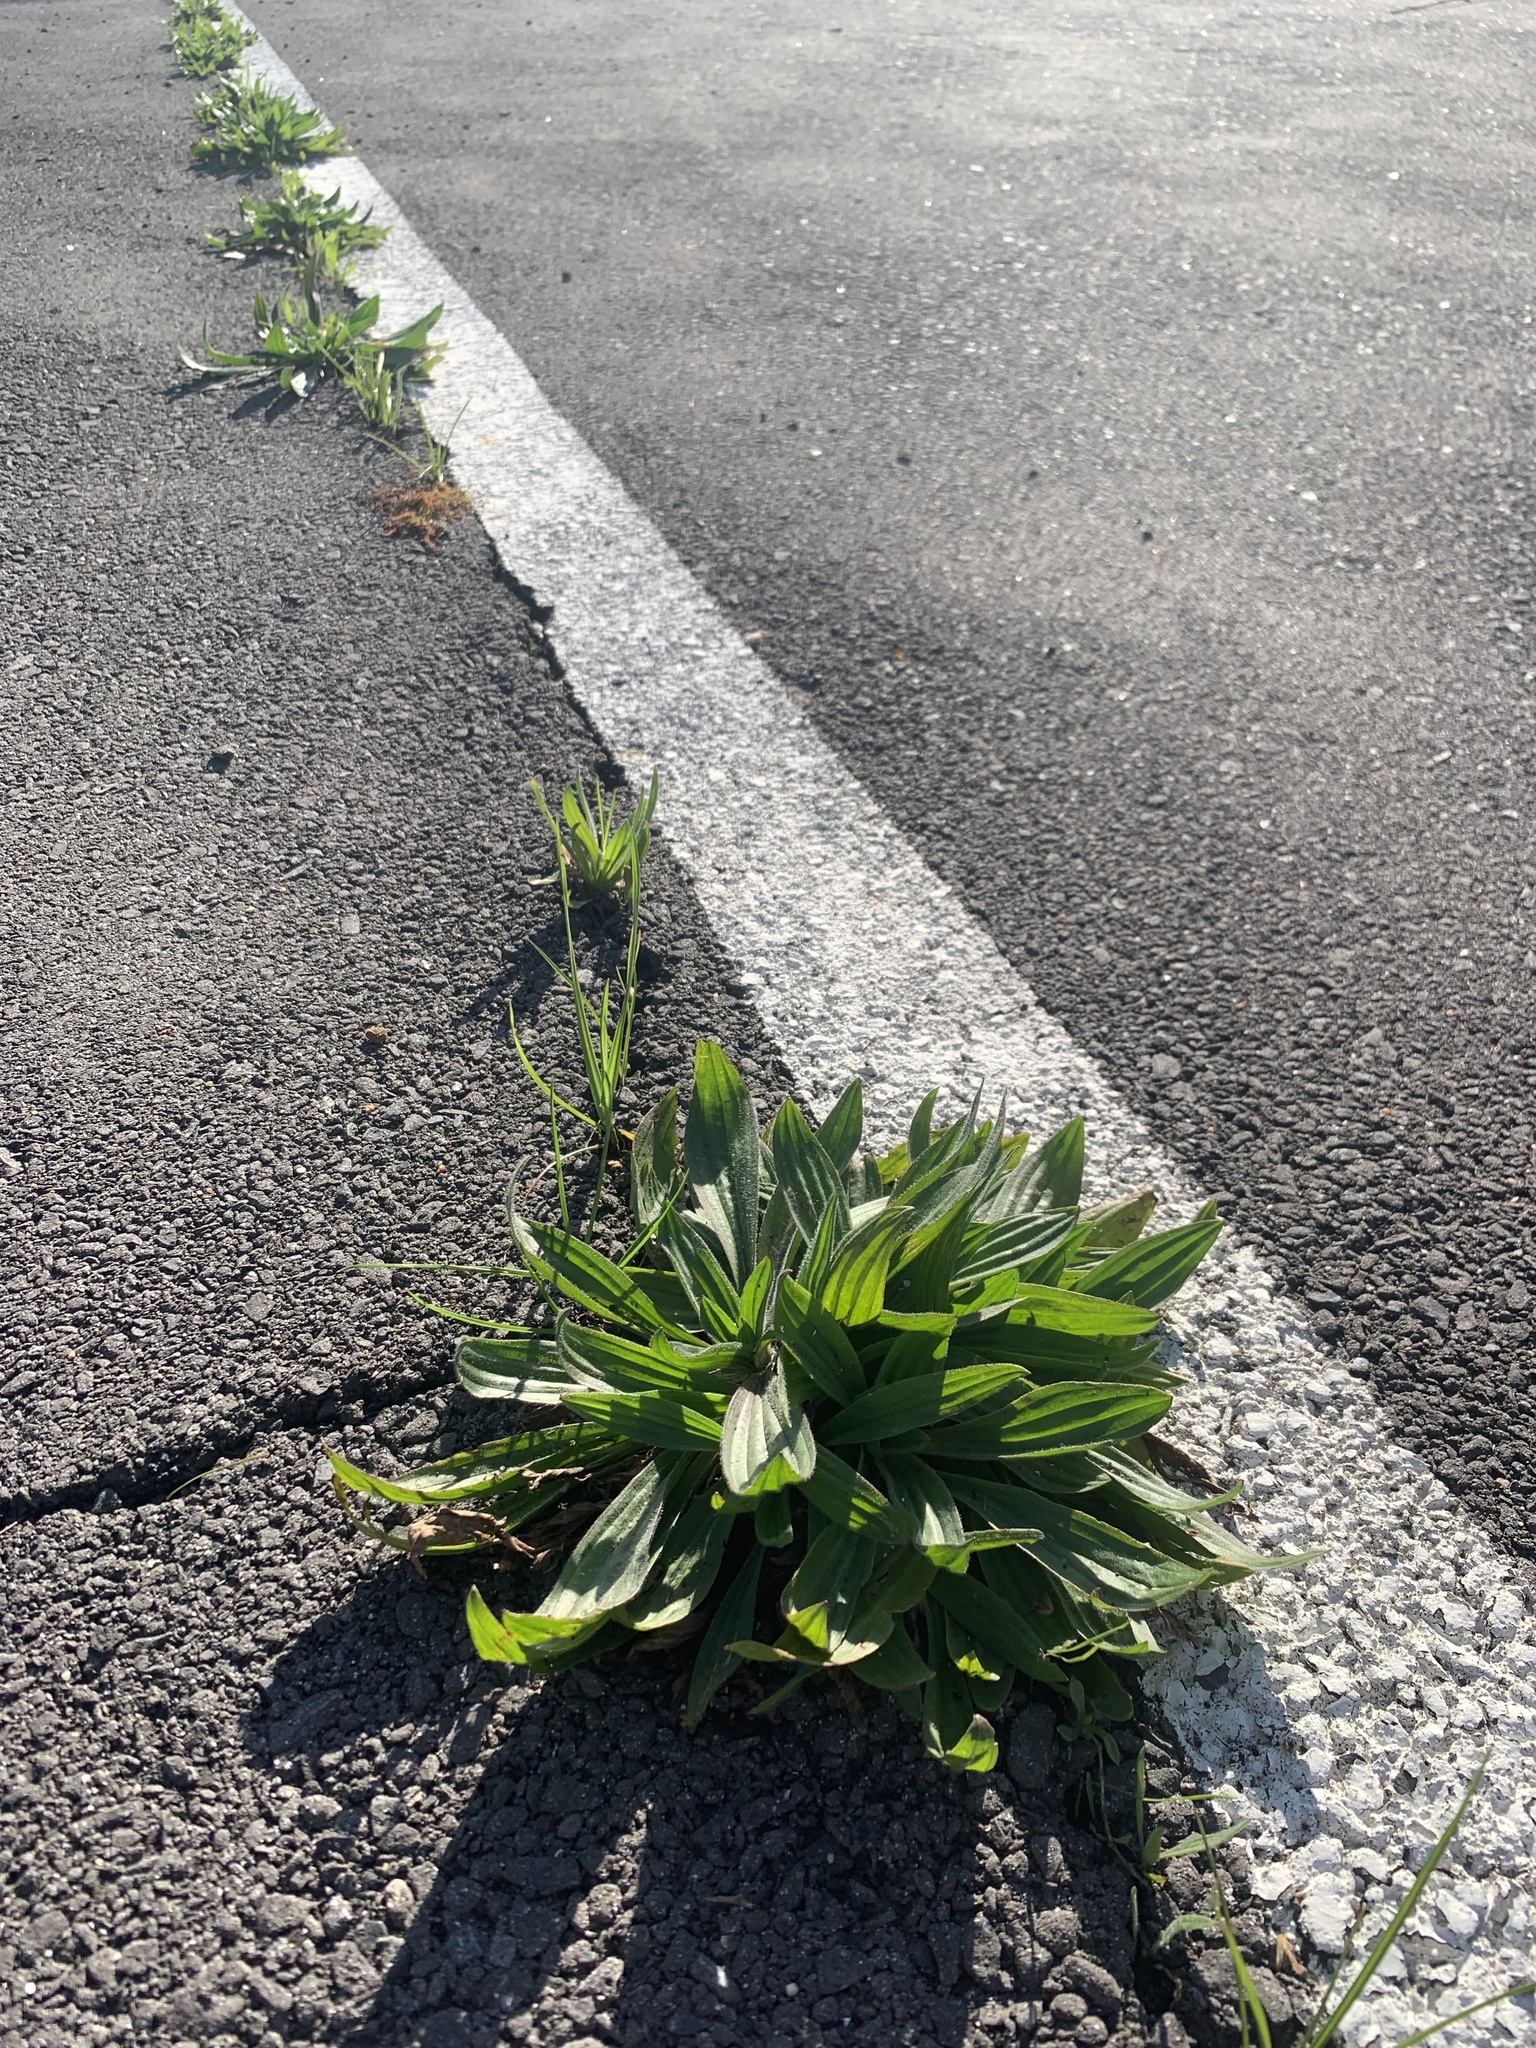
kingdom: Plantae
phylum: Tracheophyta
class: Magnoliopsida
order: Lamiales
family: Plantaginaceae
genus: Plantago
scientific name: Plantago lanceolata
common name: Ribwort plantain
